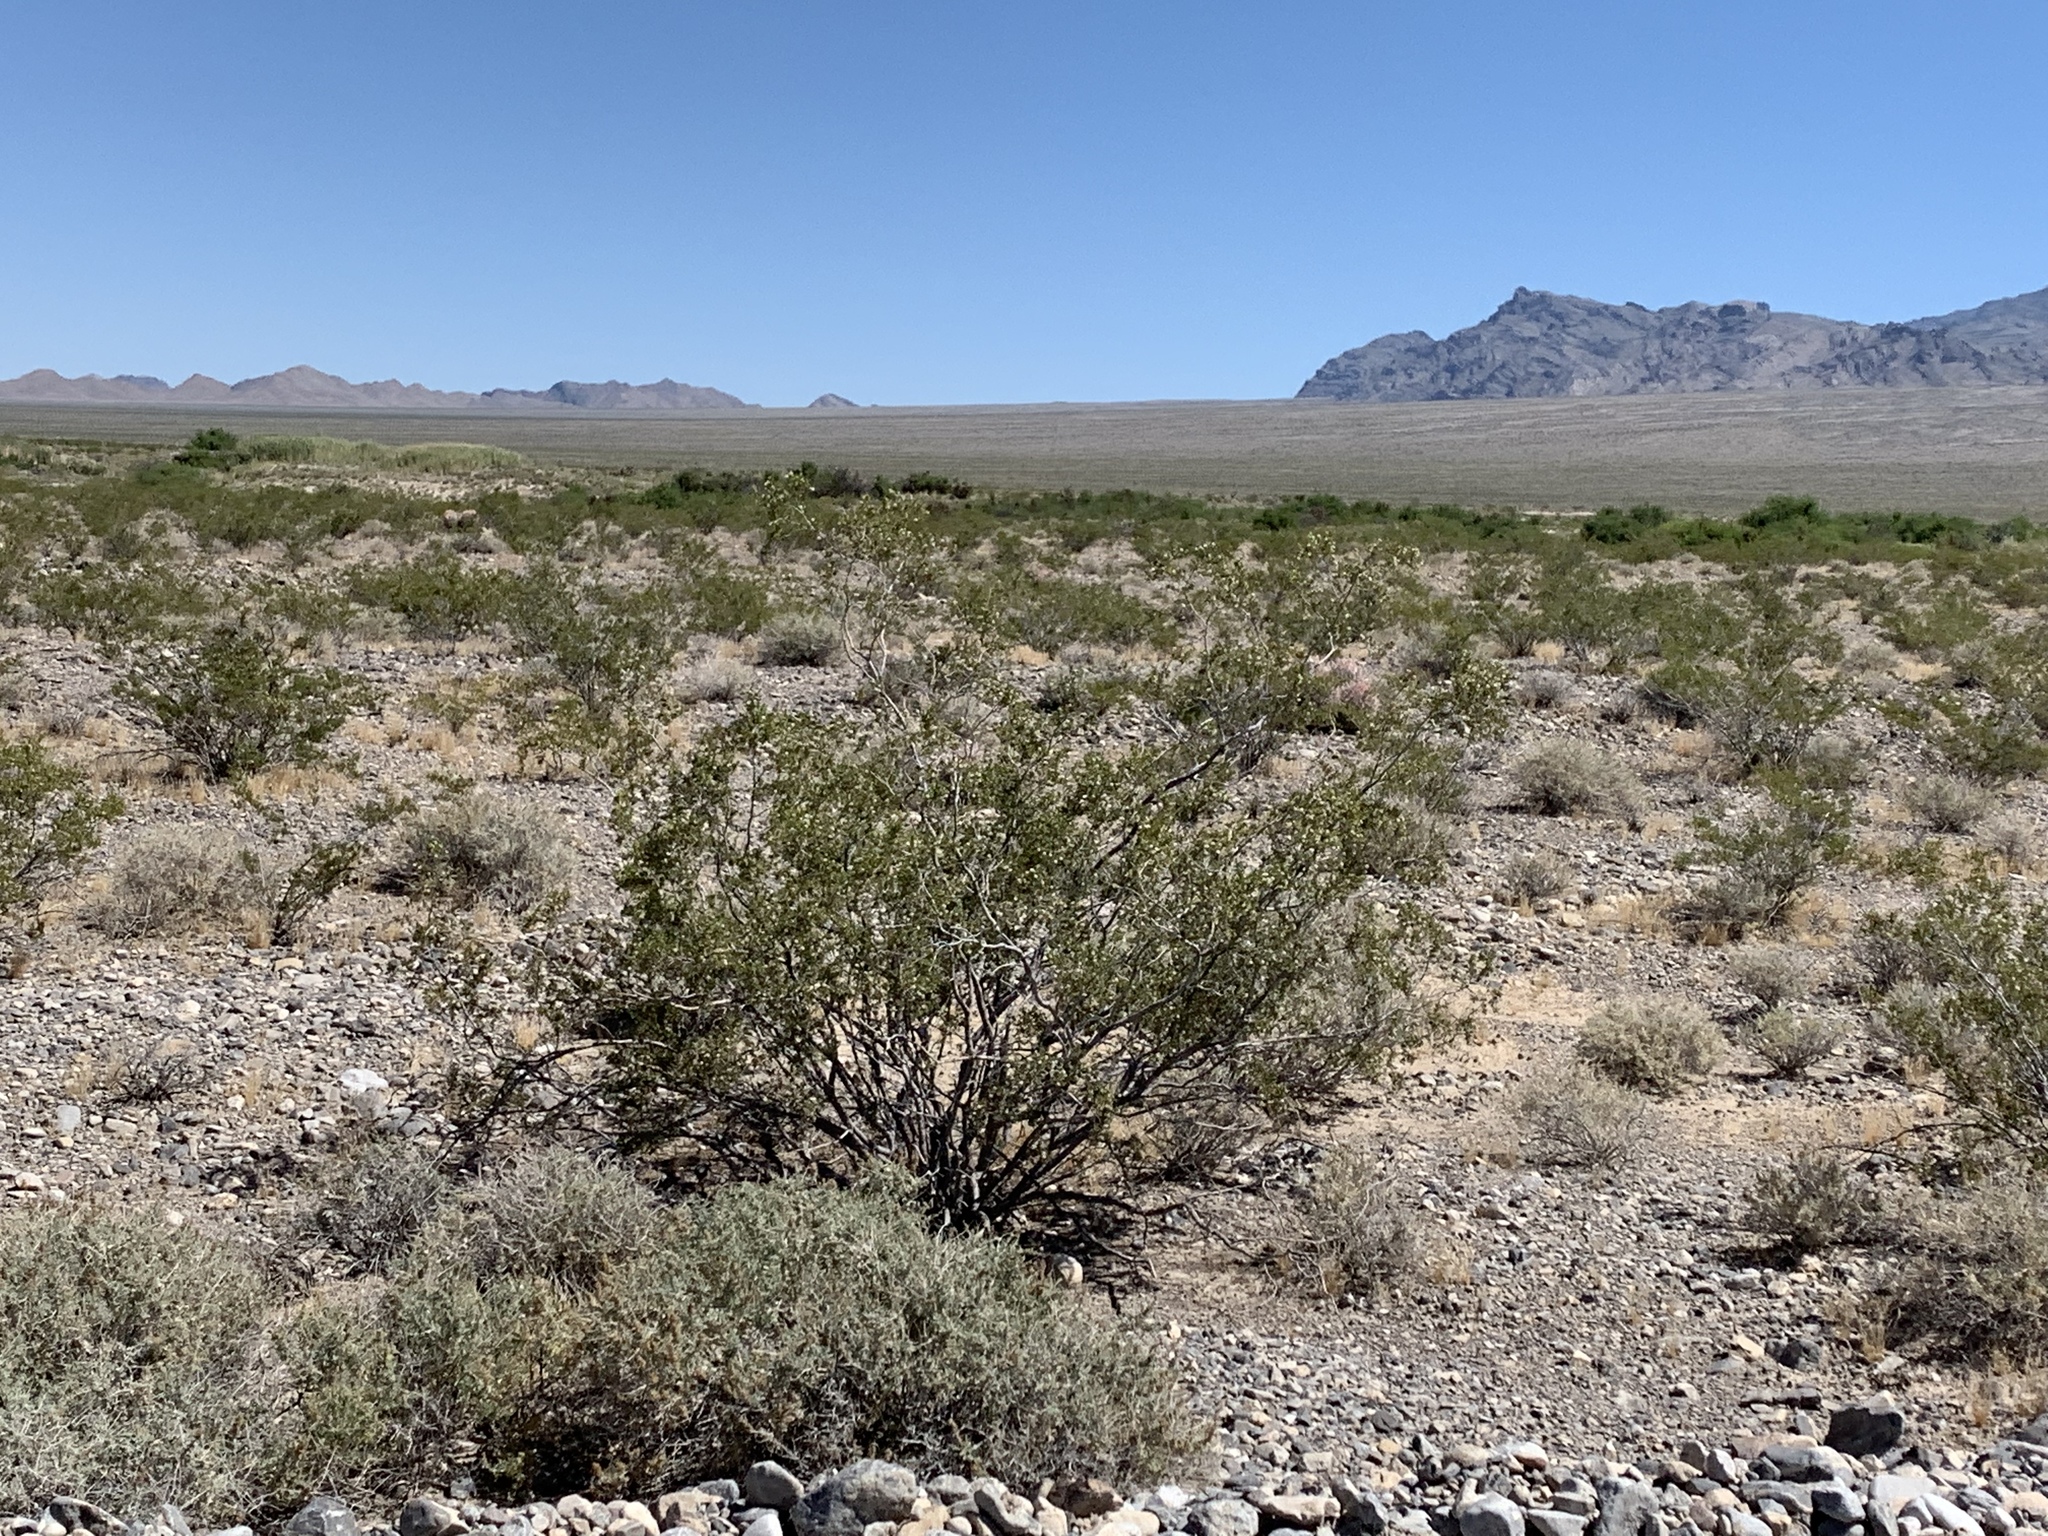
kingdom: Plantae
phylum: Tracheophyta
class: Magnoliopsida
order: Zygophyllales
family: Zygophyllaceae
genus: Larrea
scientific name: Larrea tridentata
